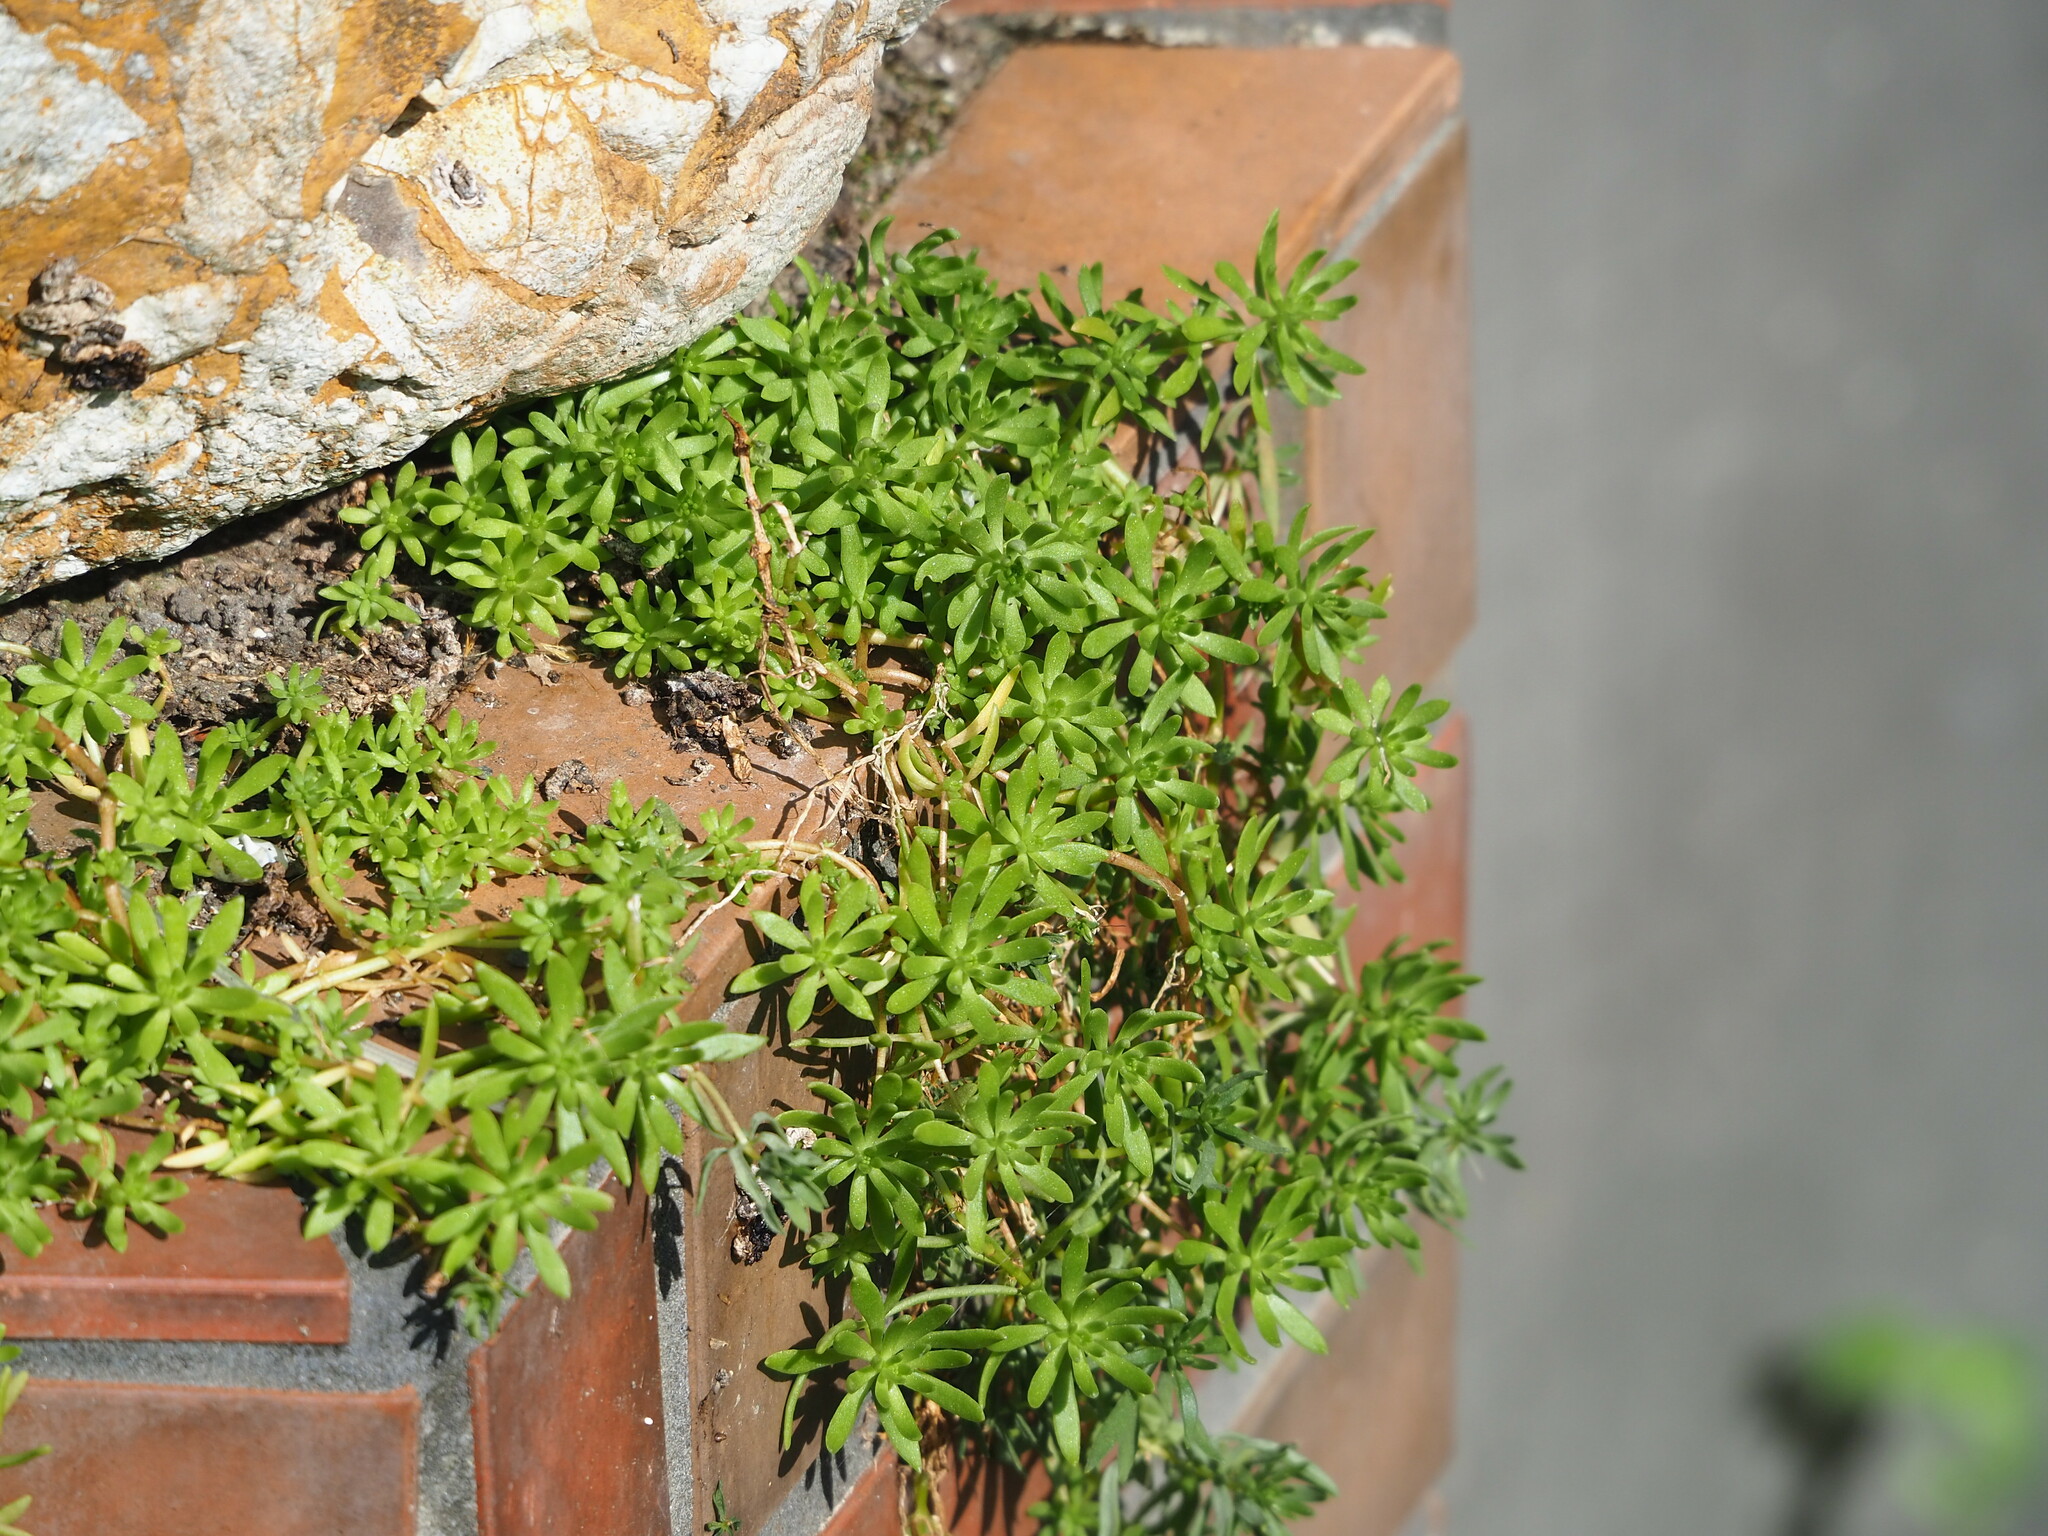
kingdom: Plantae
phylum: Tracheophyta
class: Magnoliopsida
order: Saxifragales
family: Crassulaceae
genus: Sedum
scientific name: Sedum mexicanum
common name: Mexican stonecrop
